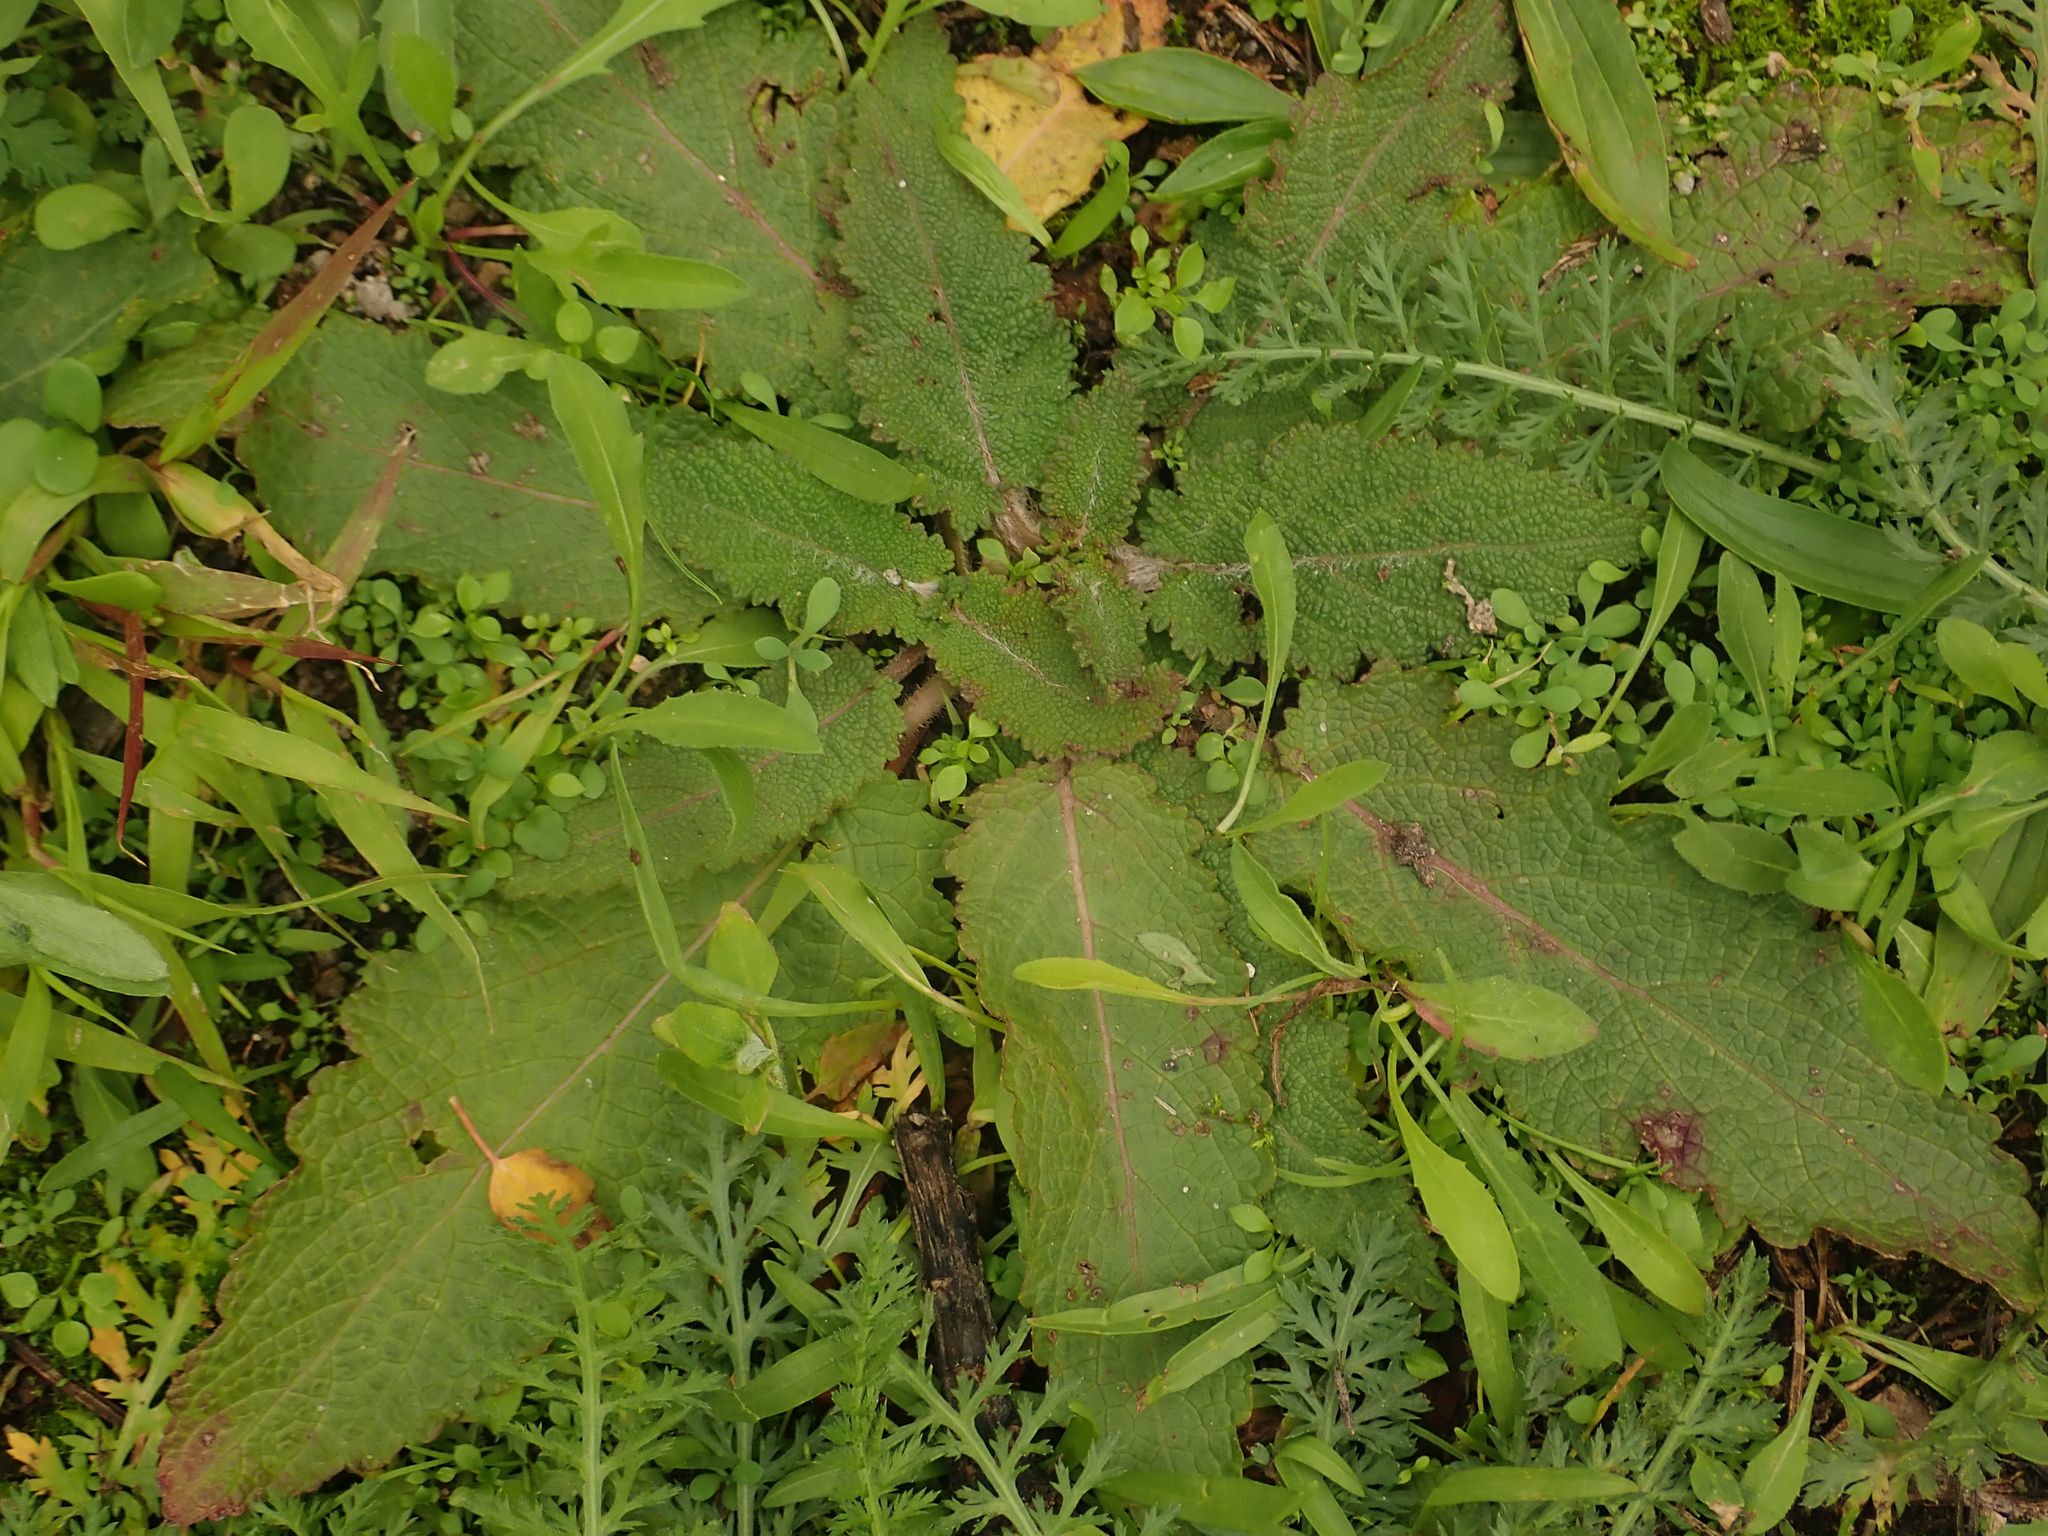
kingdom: Plantae
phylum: Tracheophyta
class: Magnoliopsida
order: Lamiales
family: Lamiaceae
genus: Salvia
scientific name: Salvia pratensis
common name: Meadow sage
